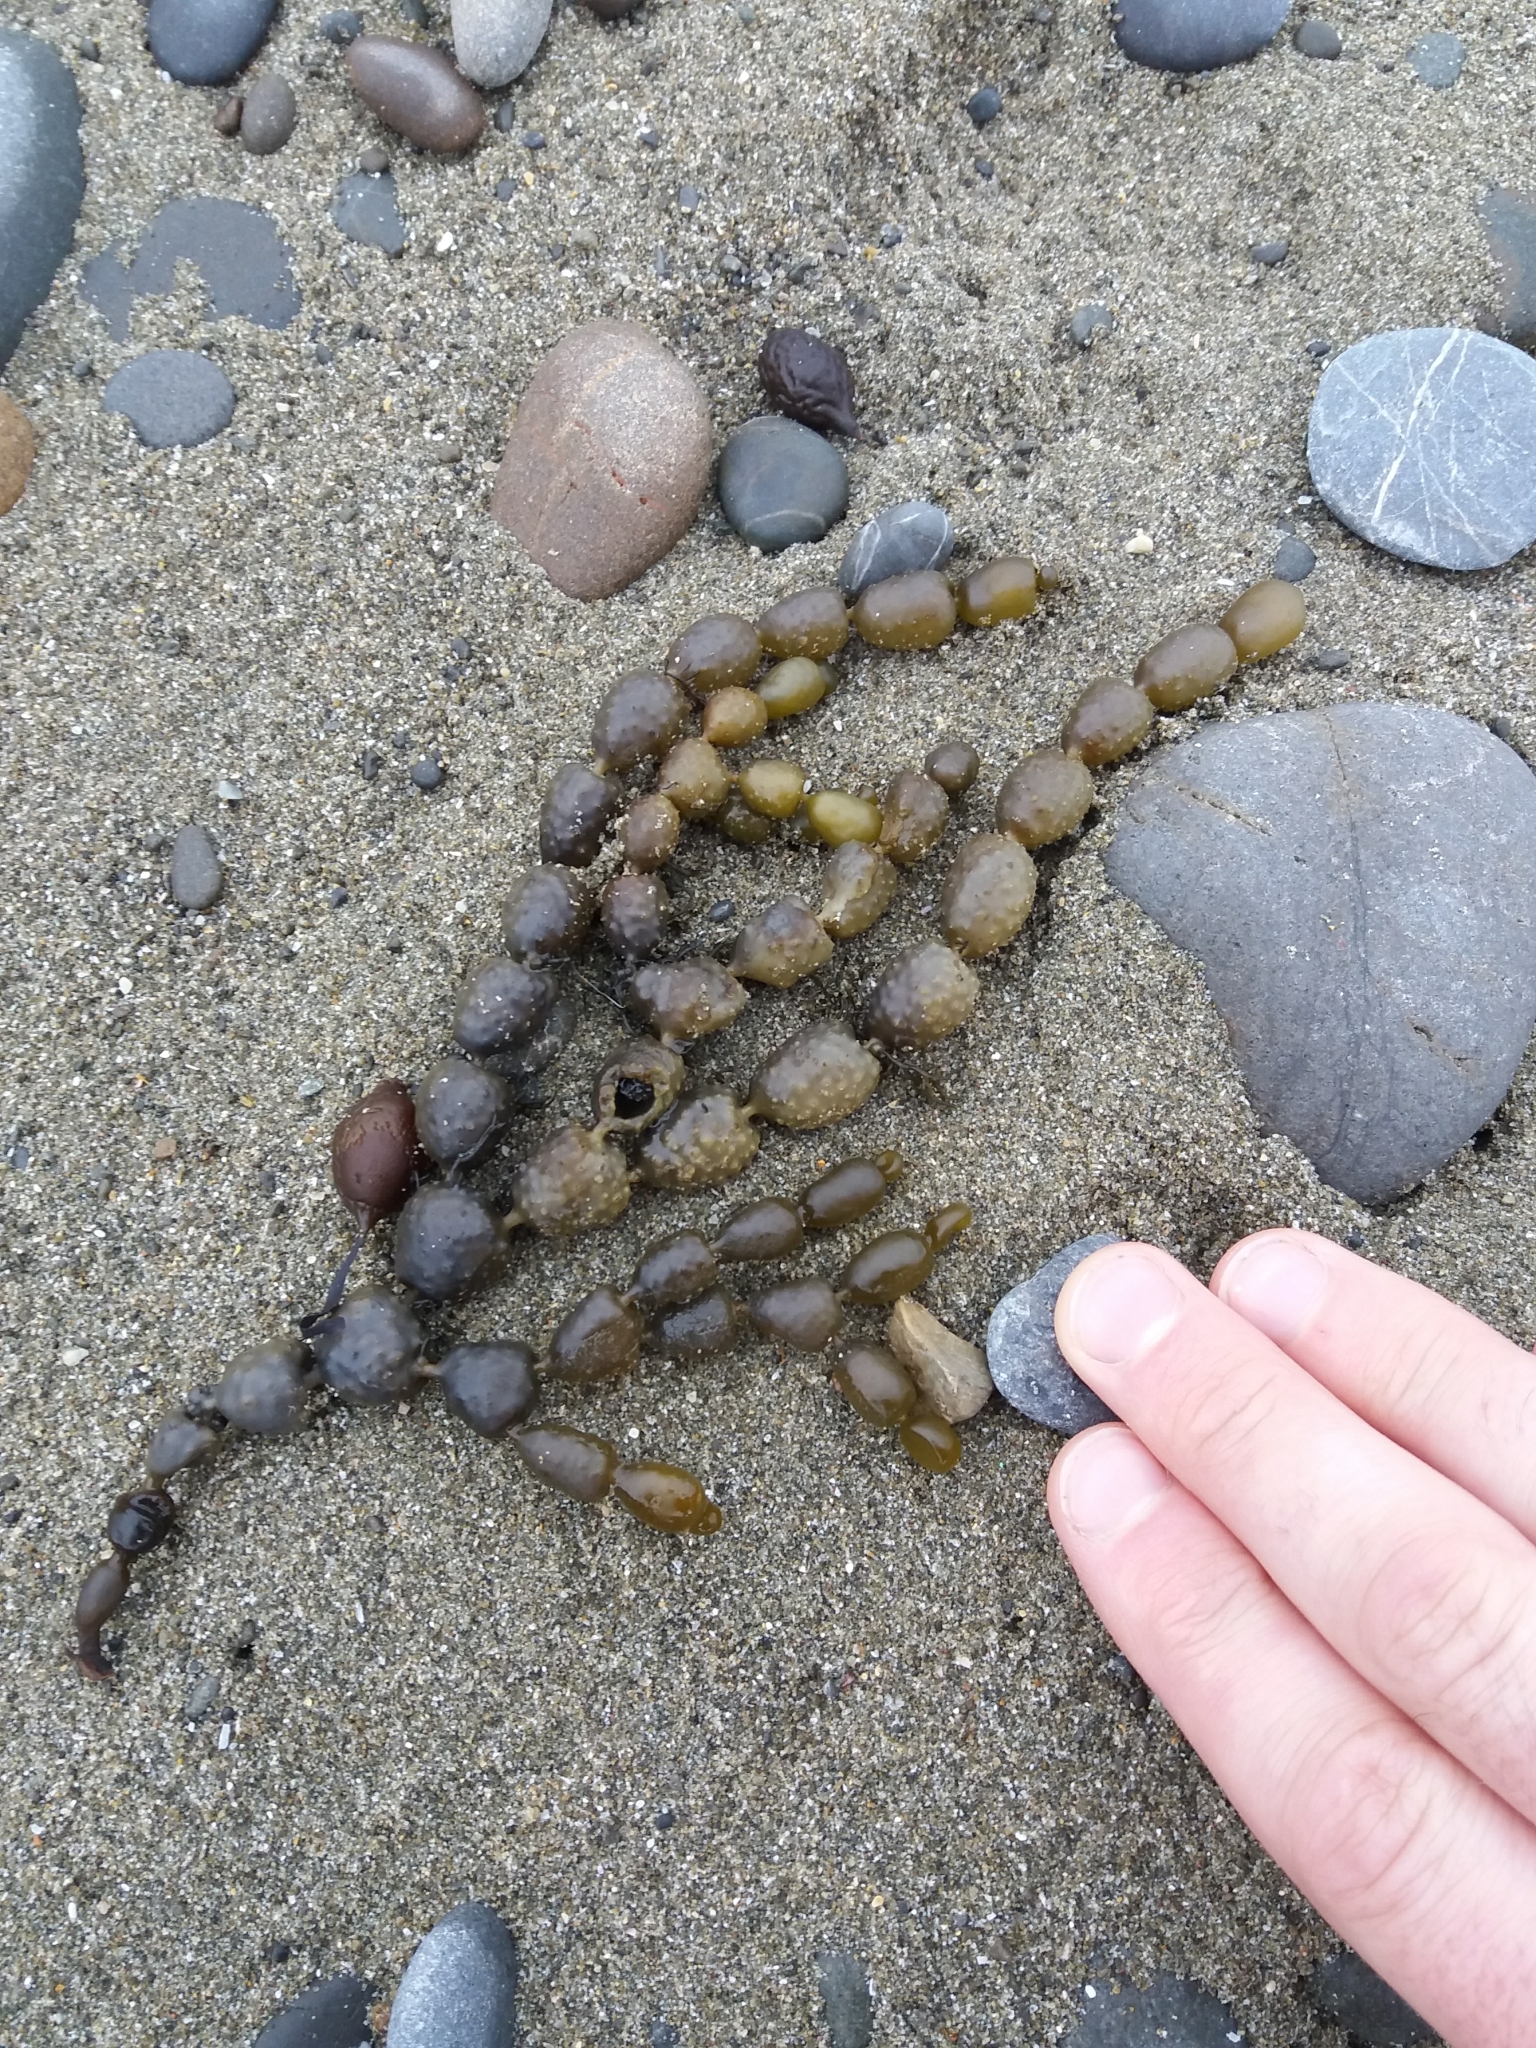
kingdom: Chromista
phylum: Ochrophyta
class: Phaeophyceae
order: Fucales
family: Hormosiraceae
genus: Hormosira
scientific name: Hormosira banksii
